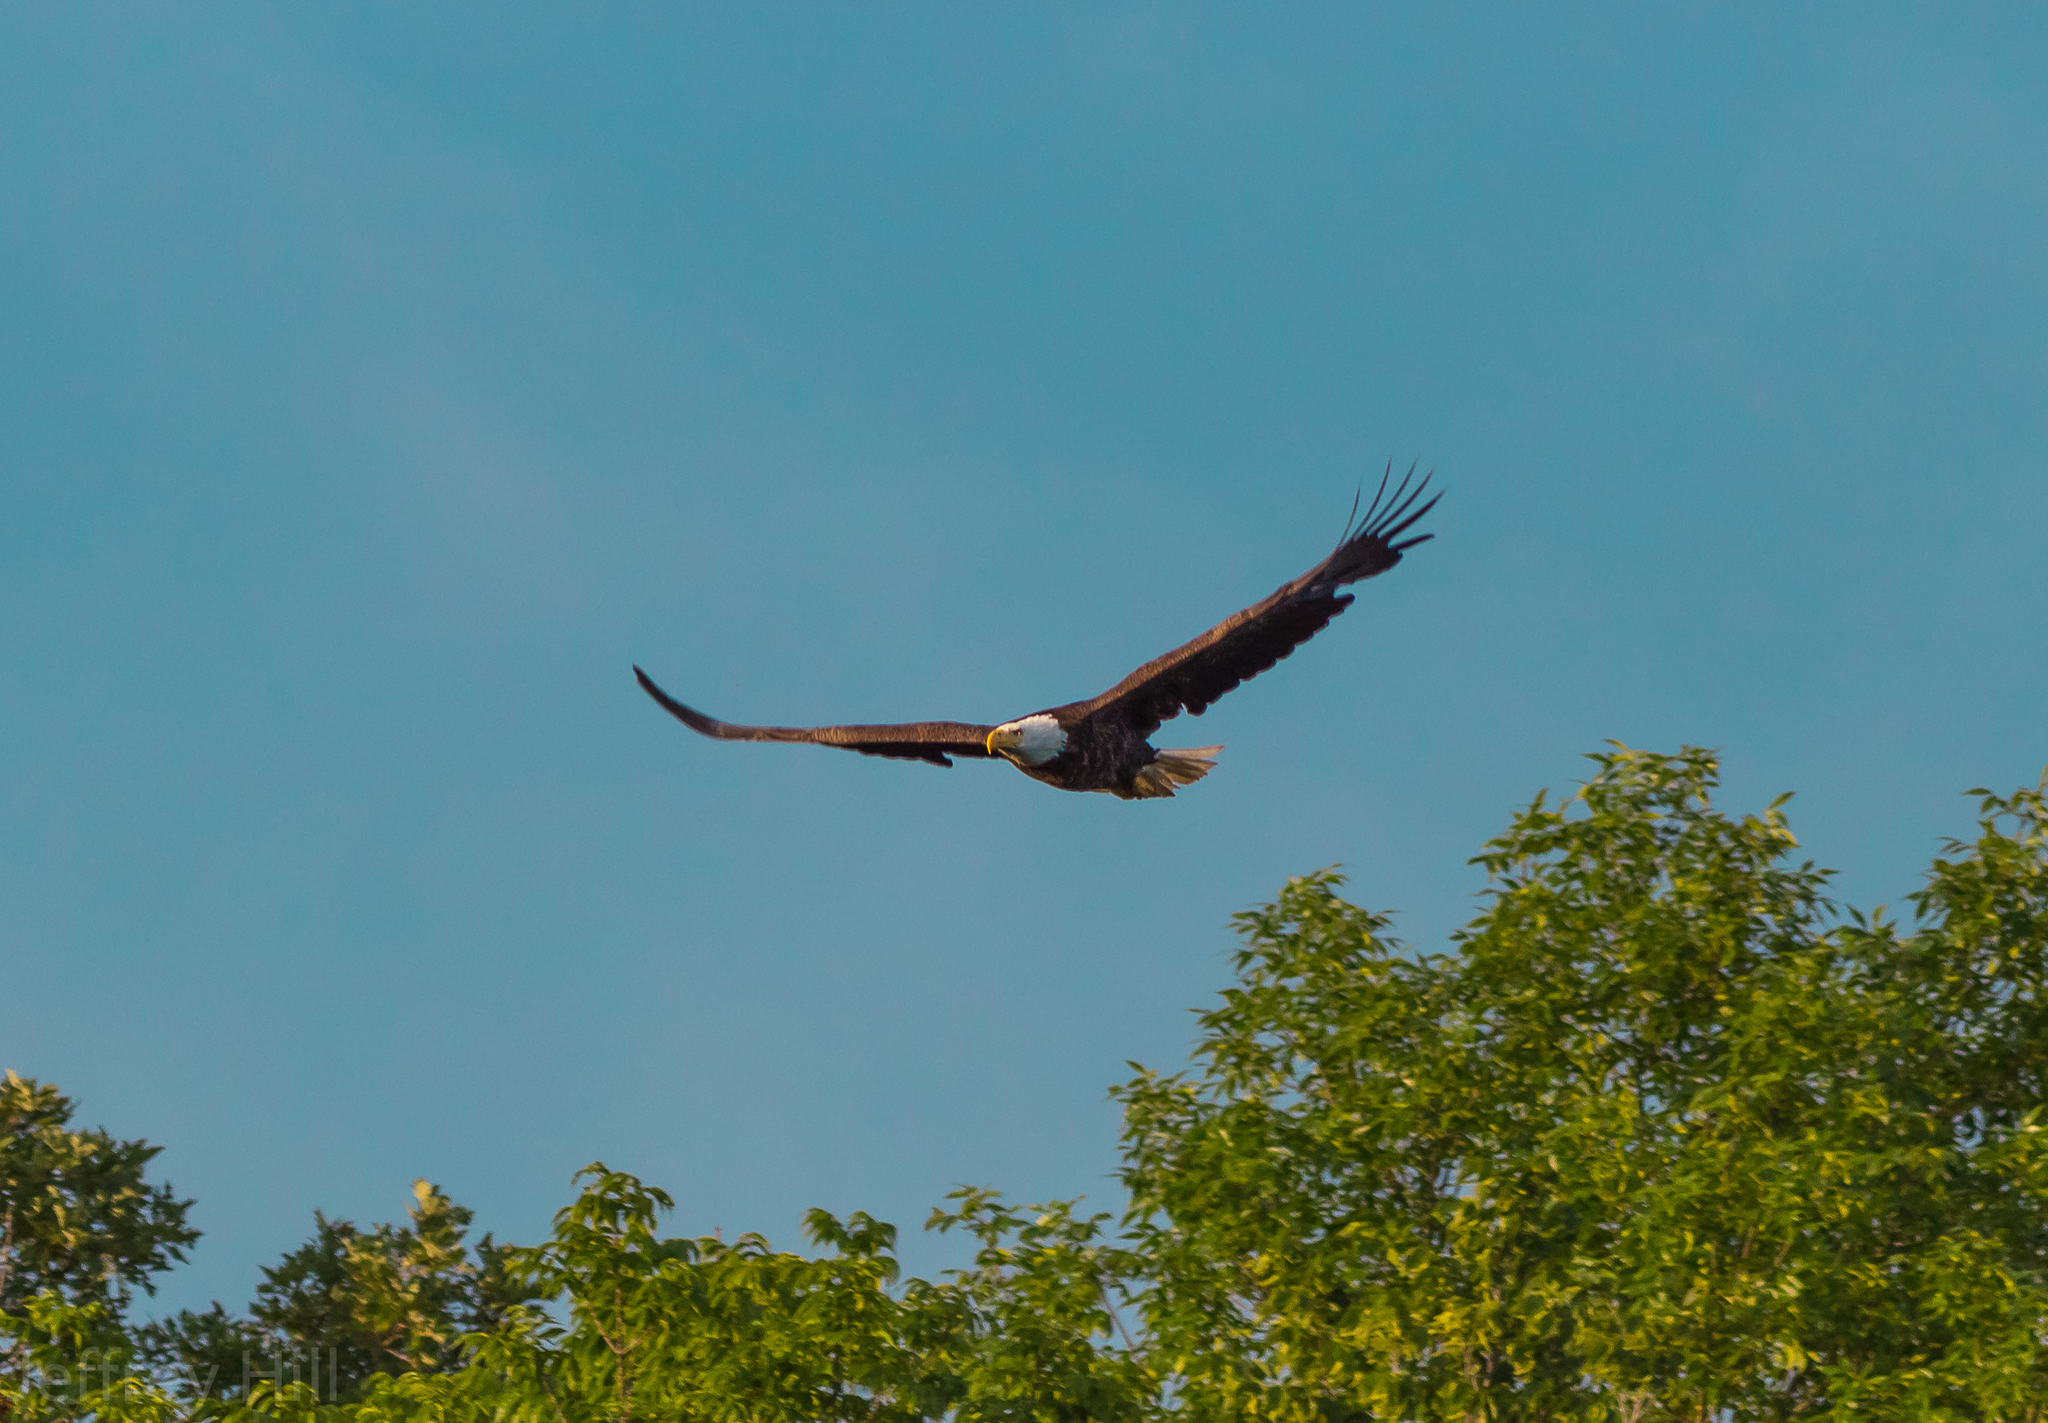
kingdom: Animalia
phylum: Chordata
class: Aves
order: Accipitriformes
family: Accipitridae
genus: Haliaeetus
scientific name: Haliaeetus leucocephalus
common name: Bald eagle
